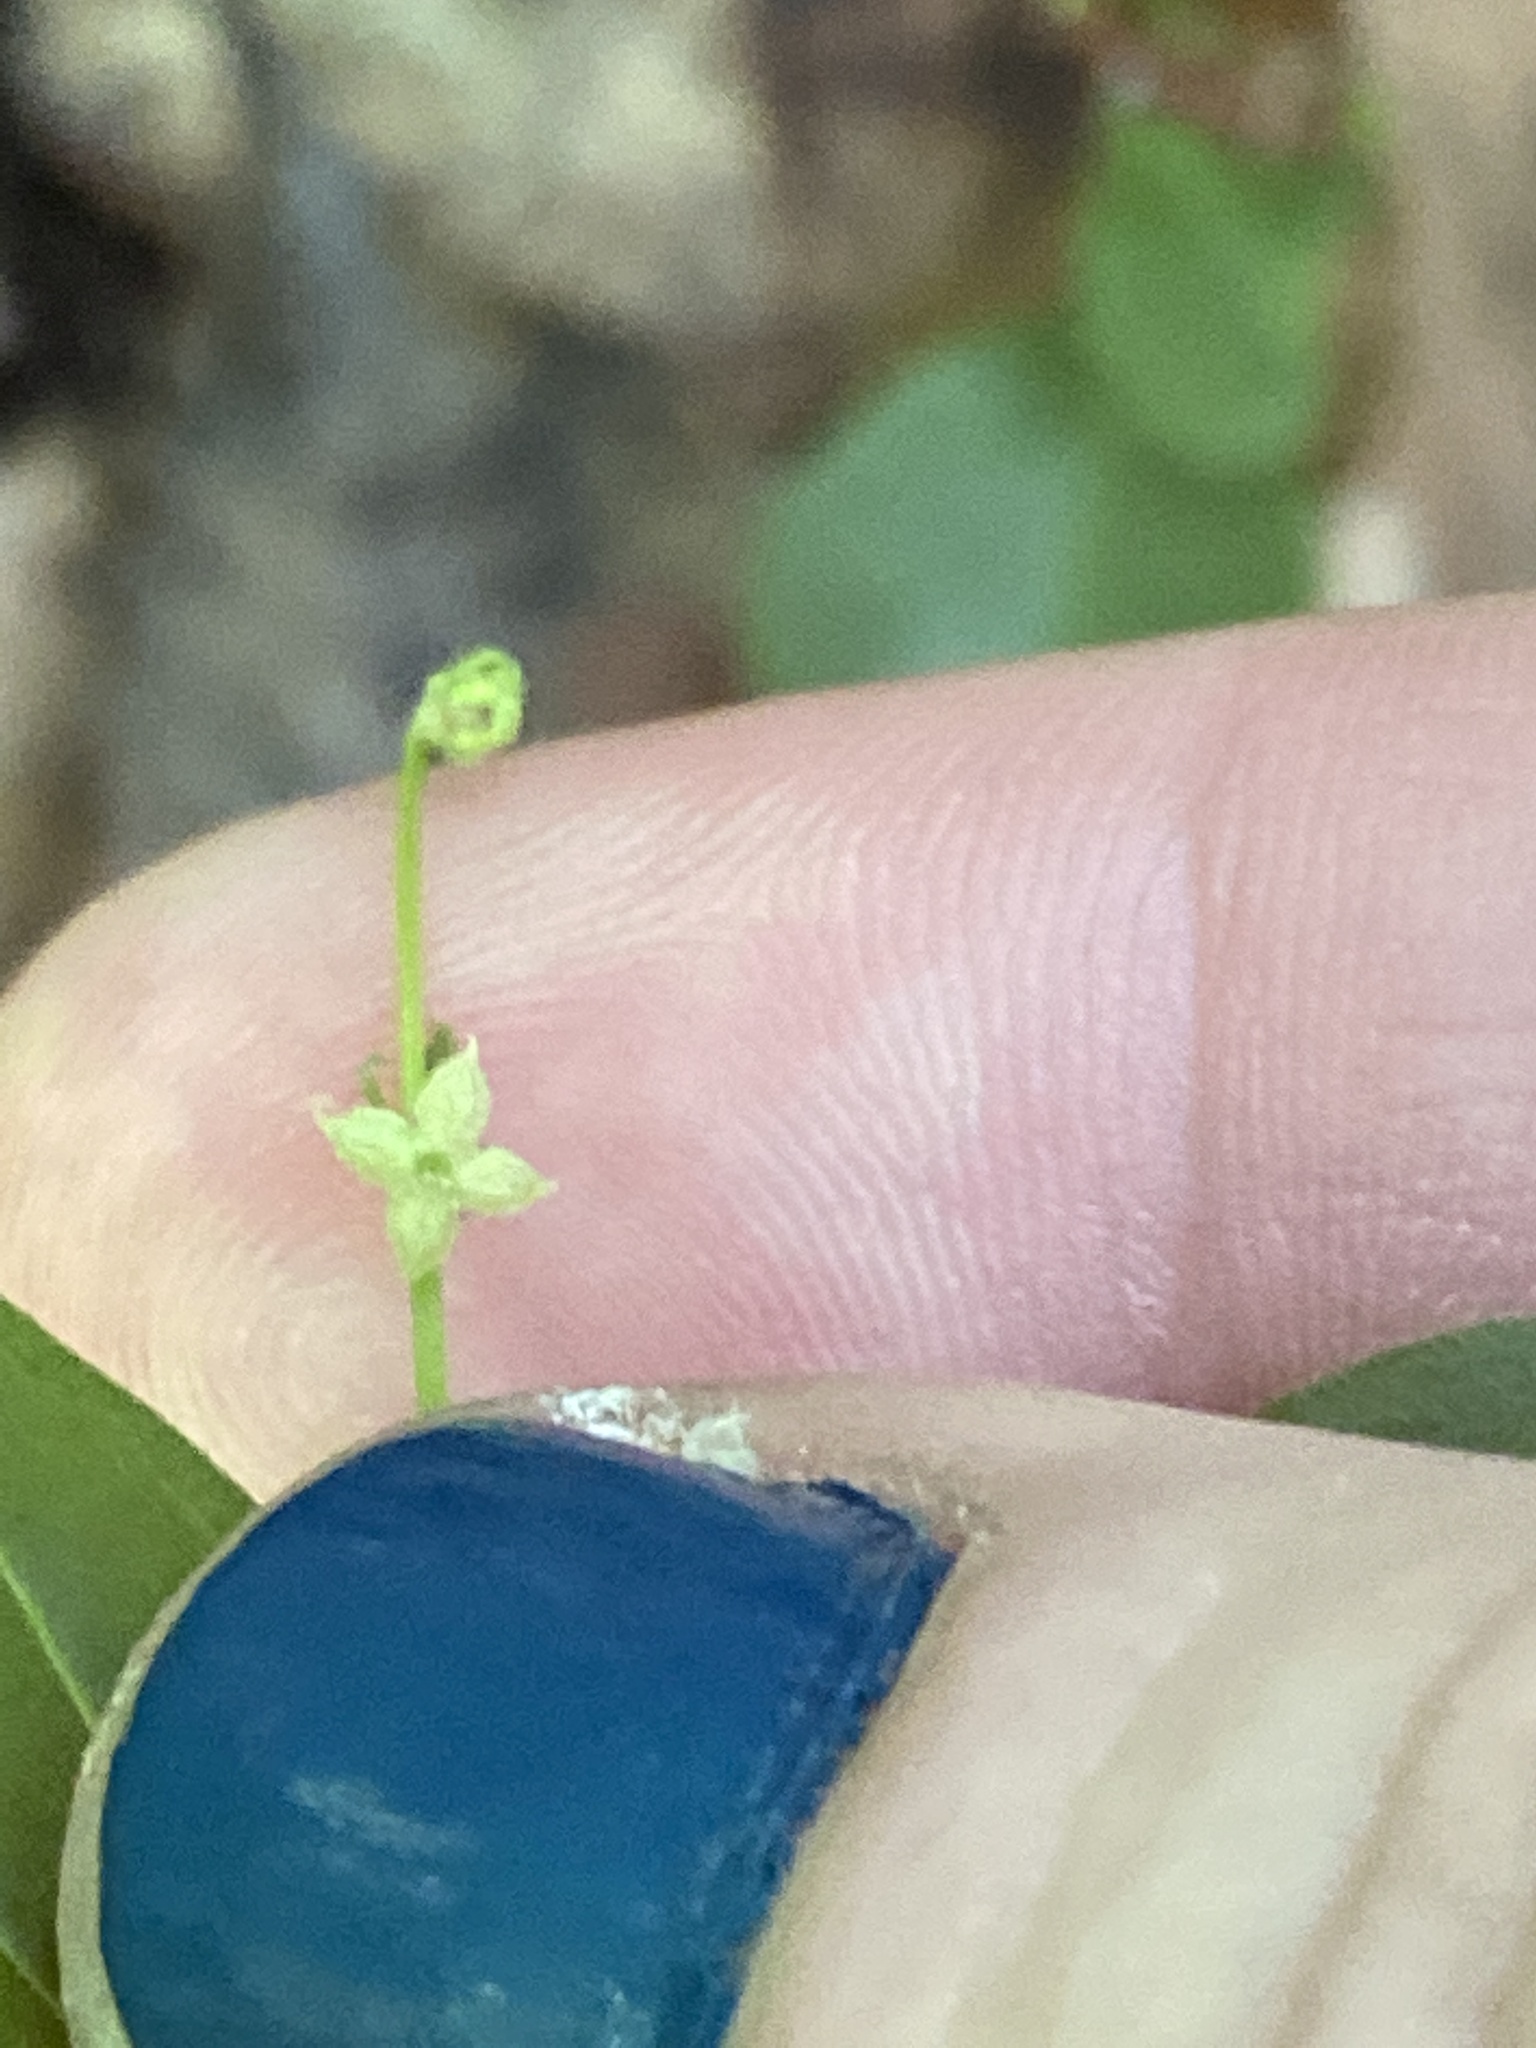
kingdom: Plantae
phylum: Tracheophyta
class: Magnoliopsida
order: Gentianales
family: Rubiaceae
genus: Galium
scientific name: Galium circaezans
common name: Forest bedstraw
